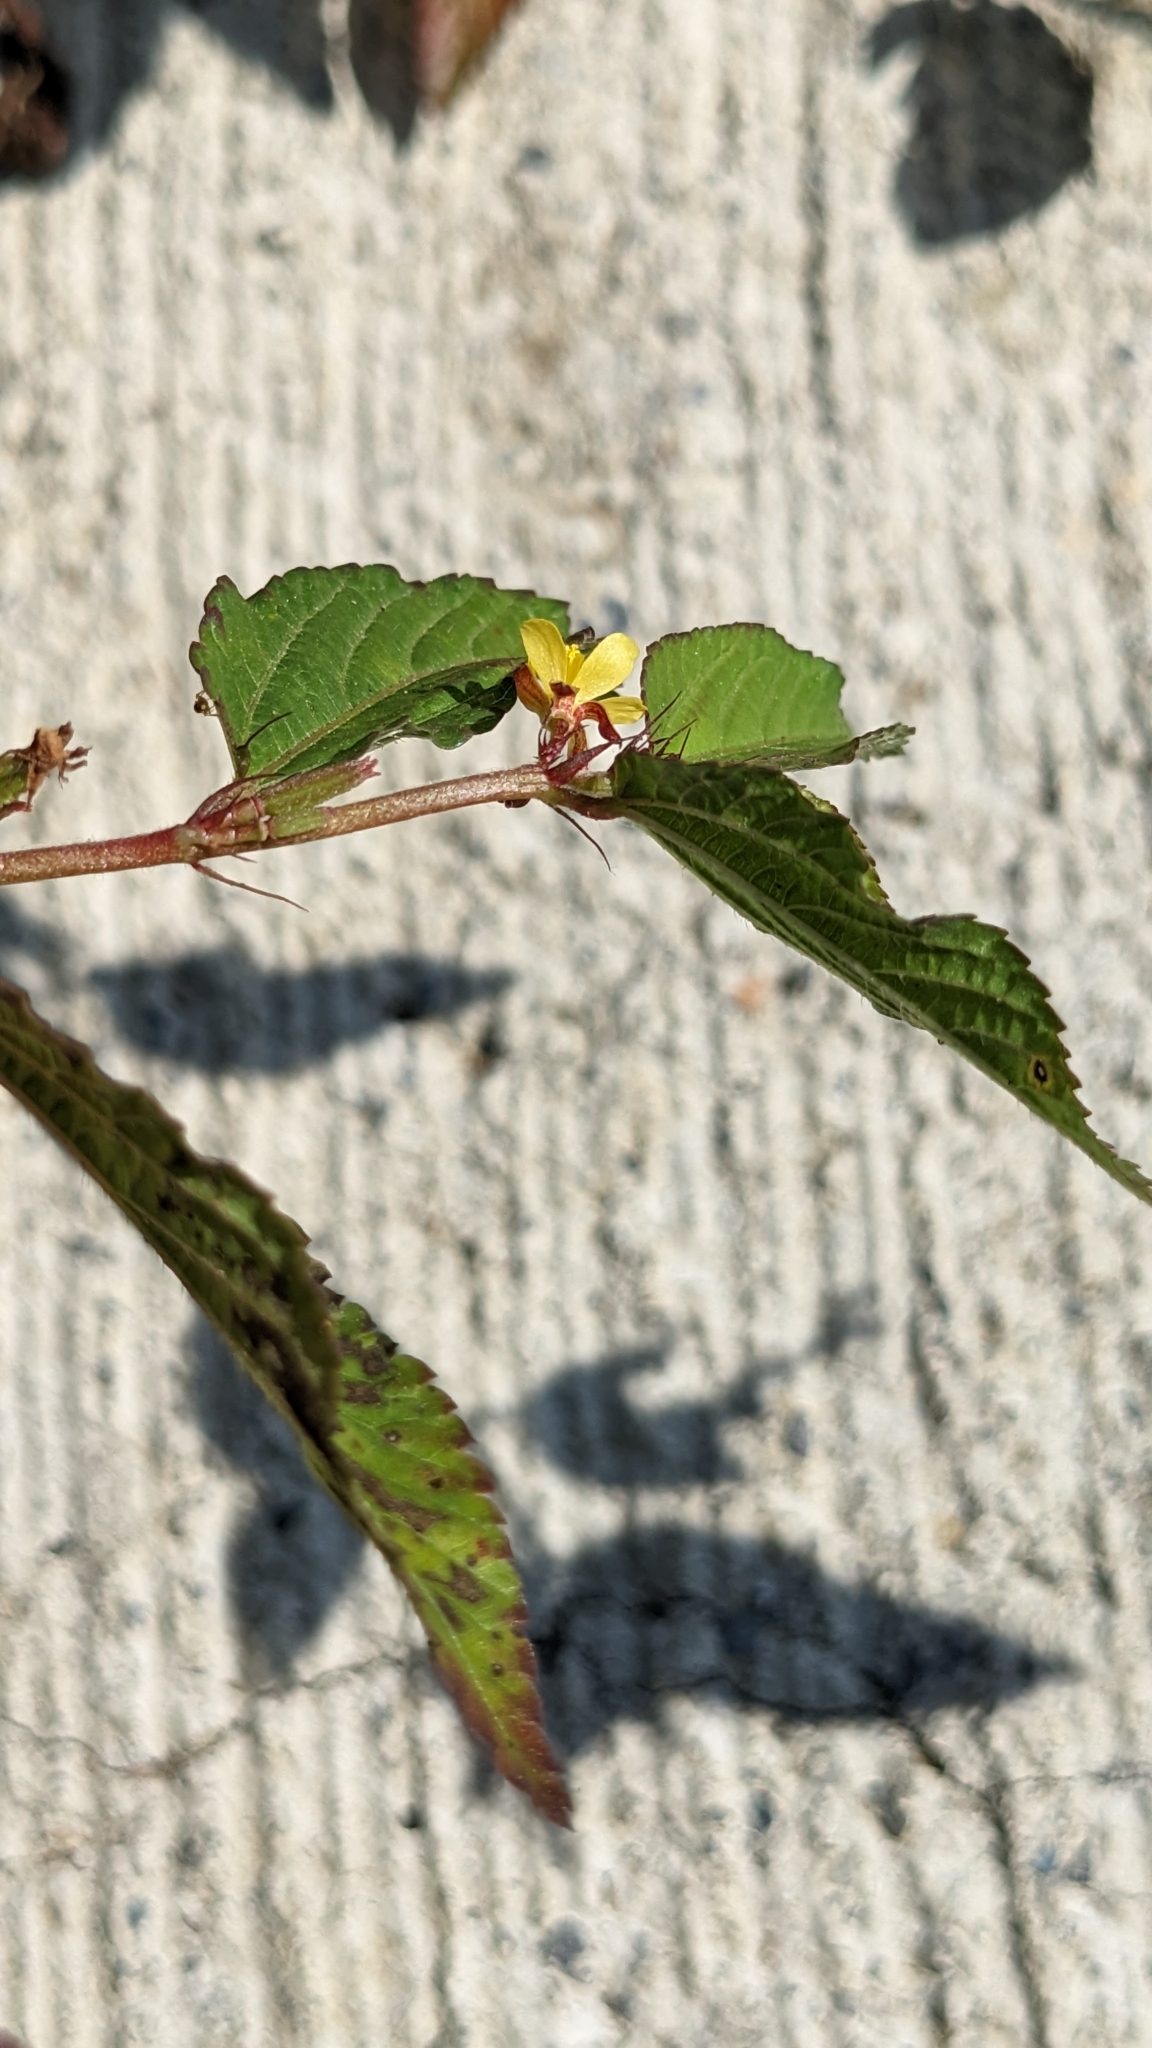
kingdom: Plantae
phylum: Tracheophyta
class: Magnoliopsida
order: Malvales
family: Malvaceae
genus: Corchorus
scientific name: Corchorus aestuans
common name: Jute
